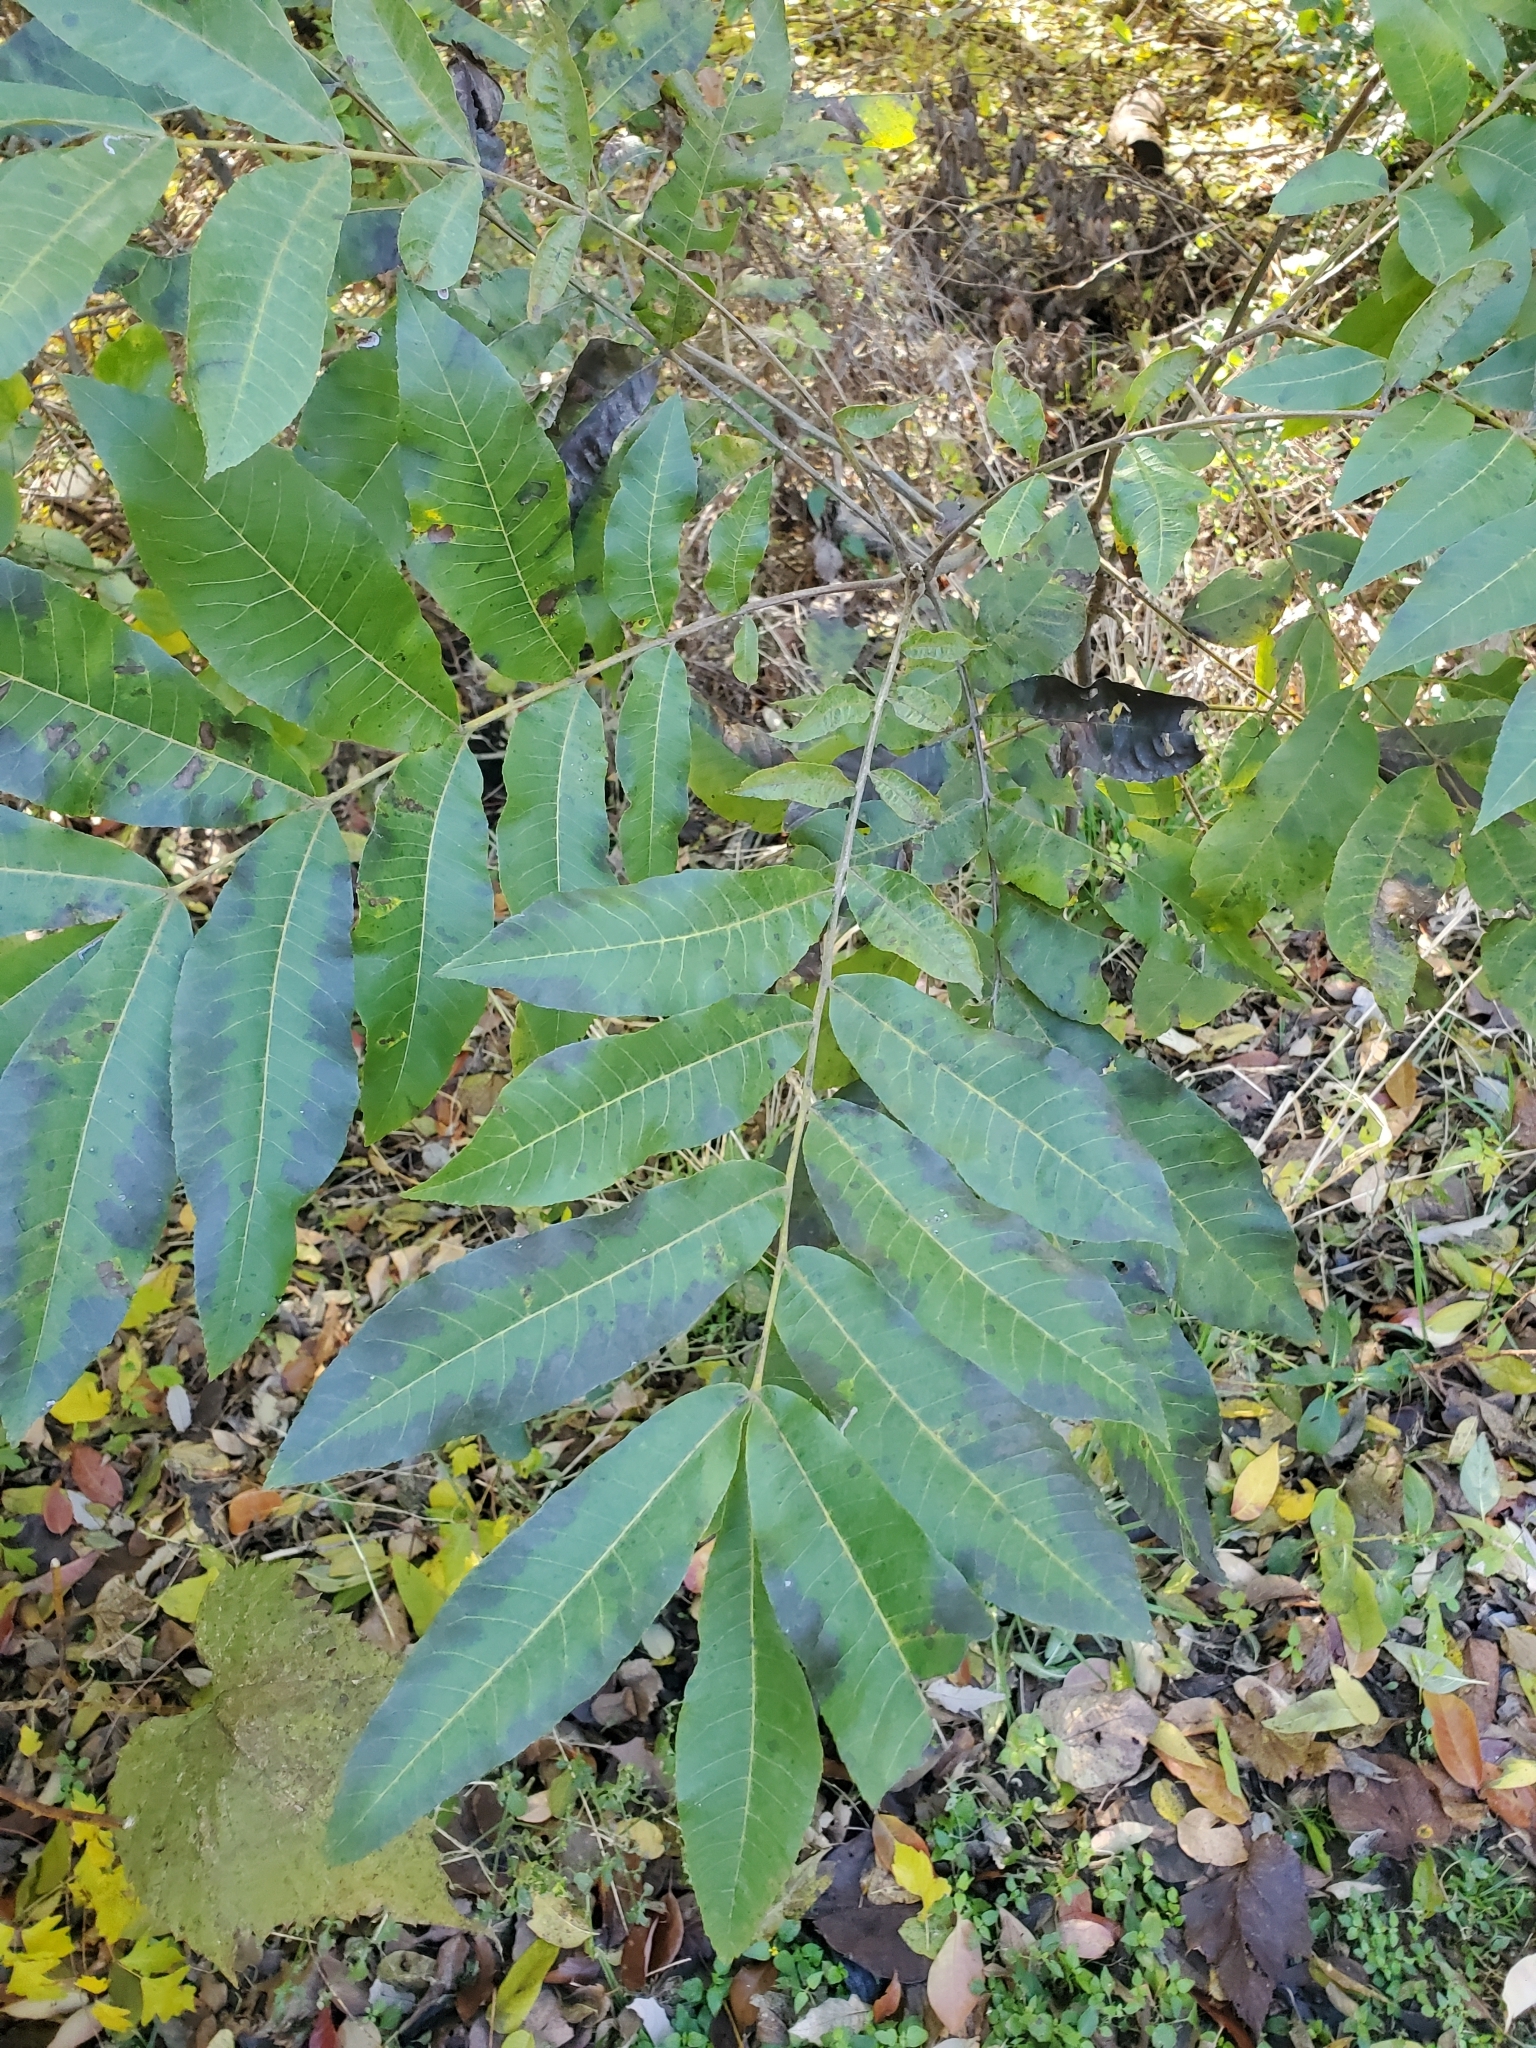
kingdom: Plantae
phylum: Tracheophyta
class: Magnoliopsida
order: Fagales
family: Juglandaceae
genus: Carya
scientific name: Carya illinoinensis
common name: Pecan
